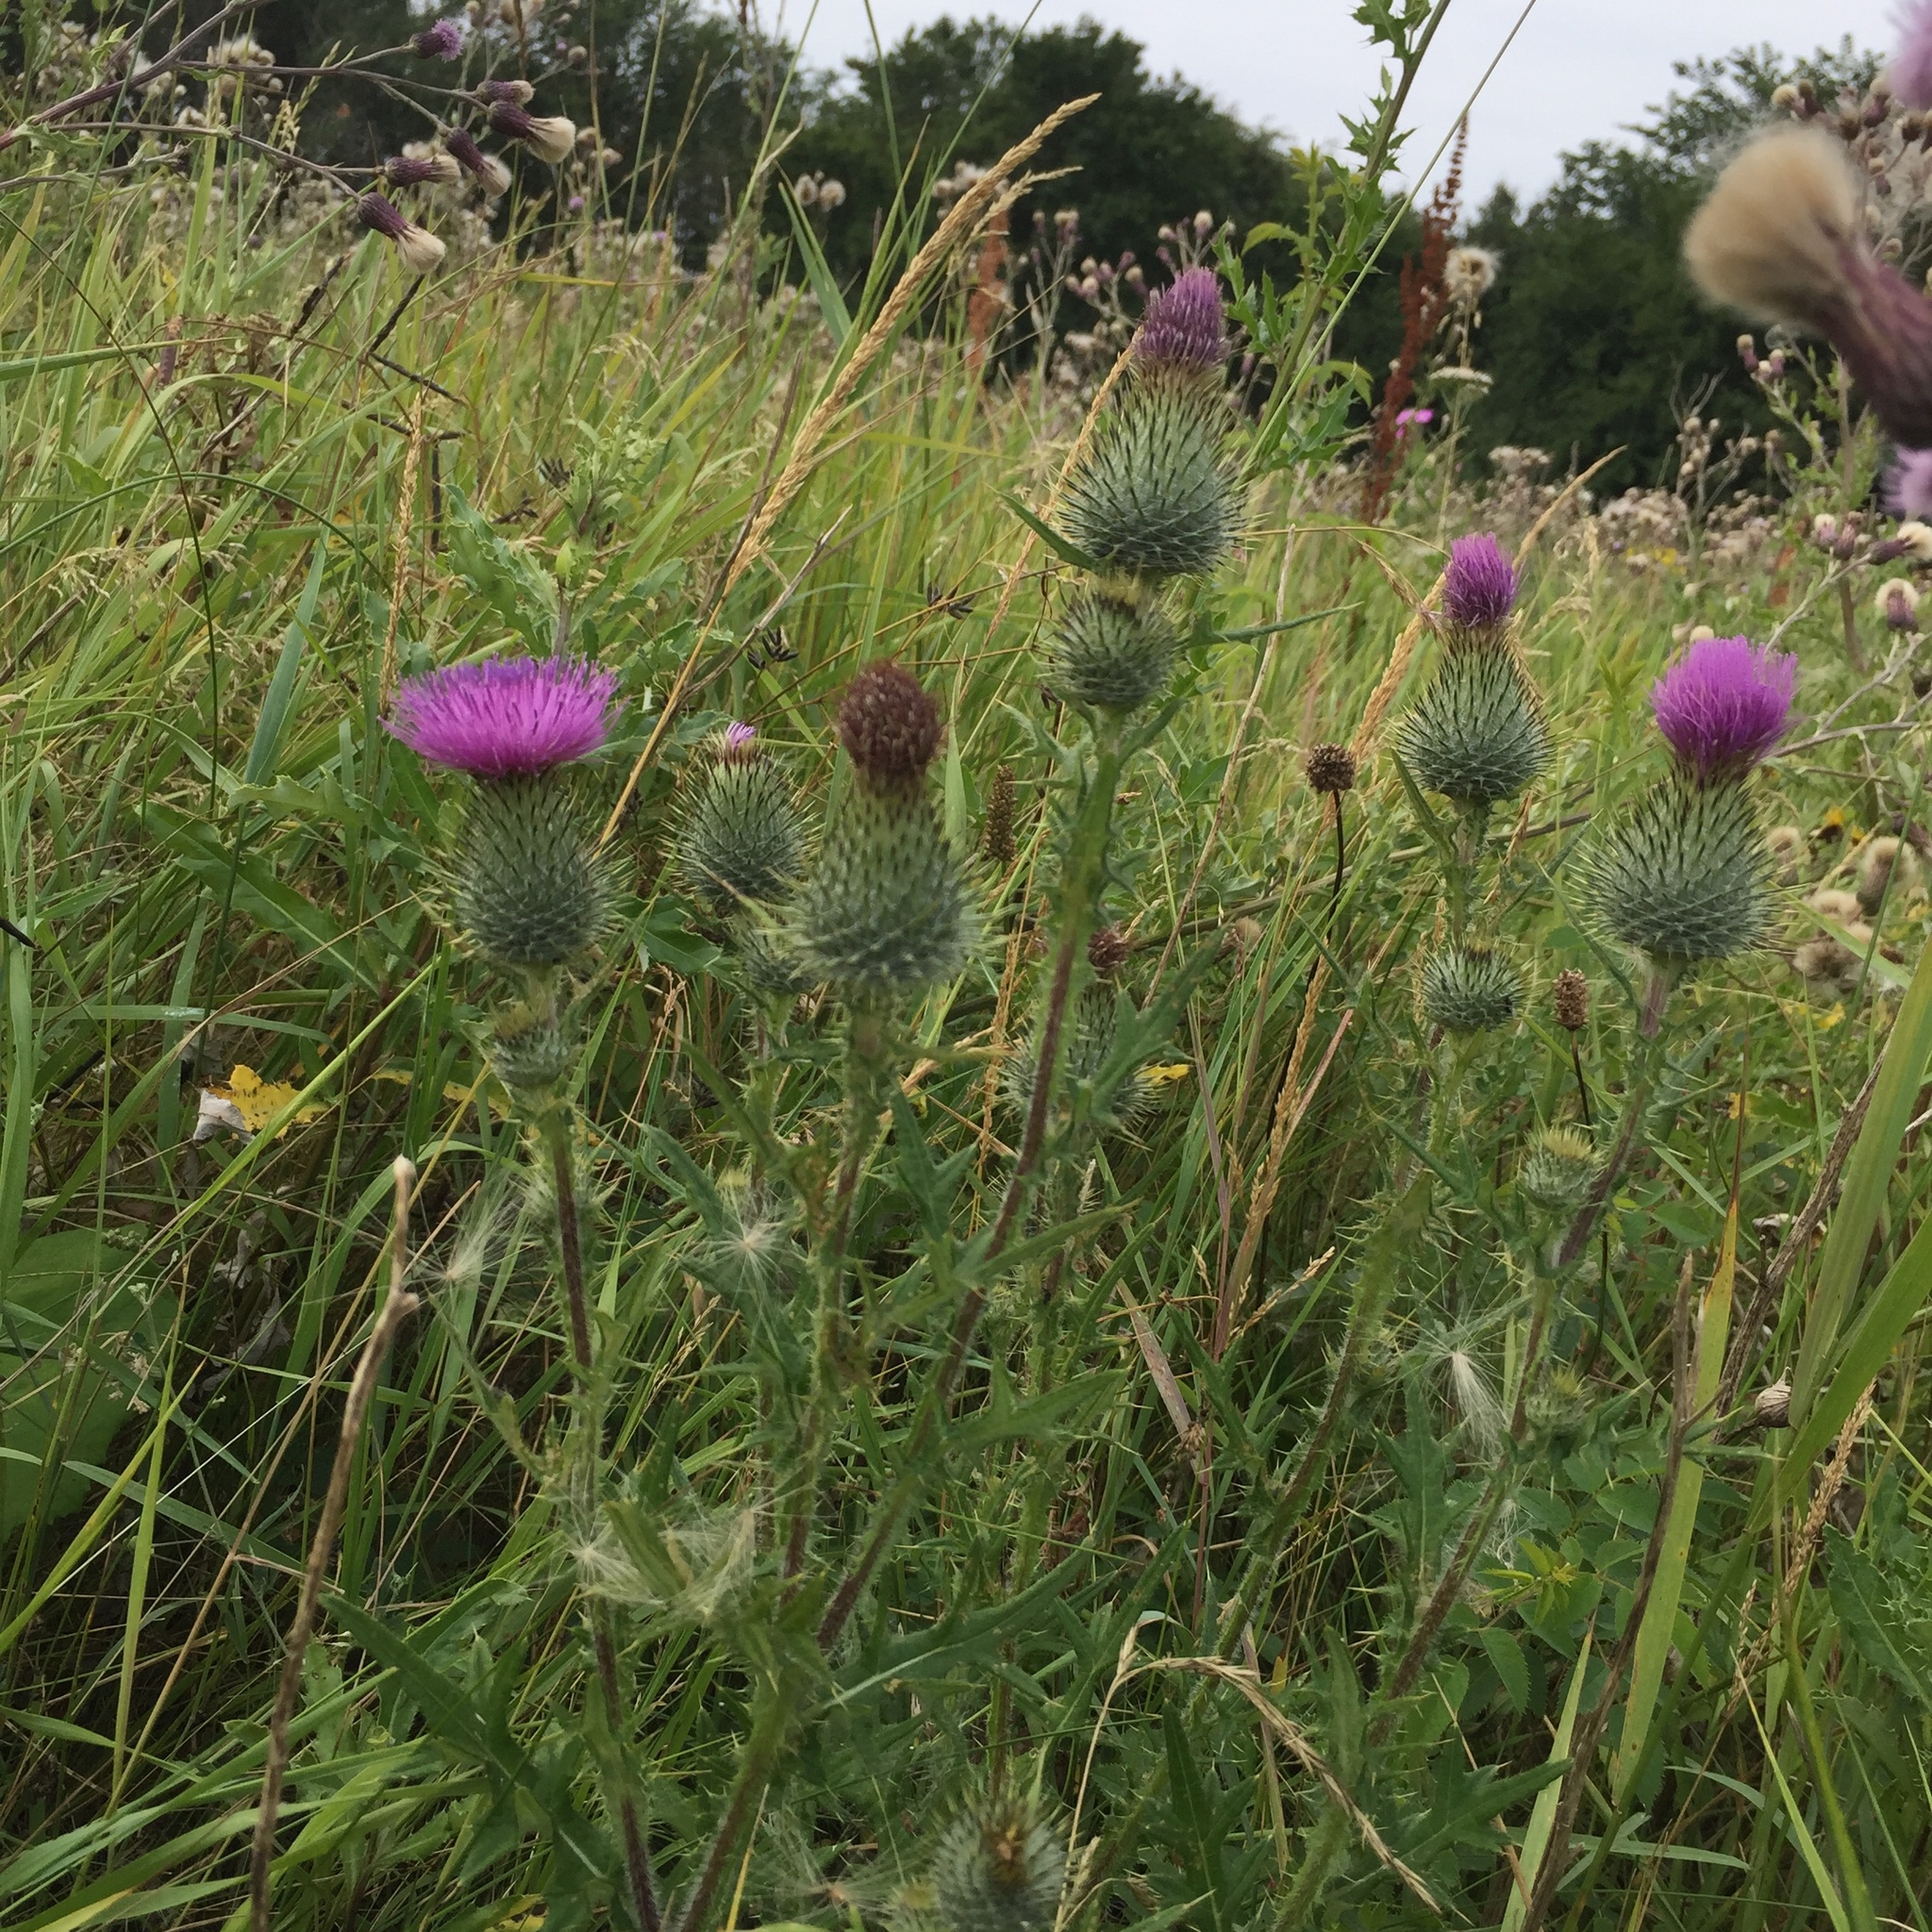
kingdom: Plantae
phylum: Tracheophyta
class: Magnoliopsida
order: Asterales
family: Asteraceae
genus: Cirsium
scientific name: Cirsium vulgare
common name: Bull thistle
